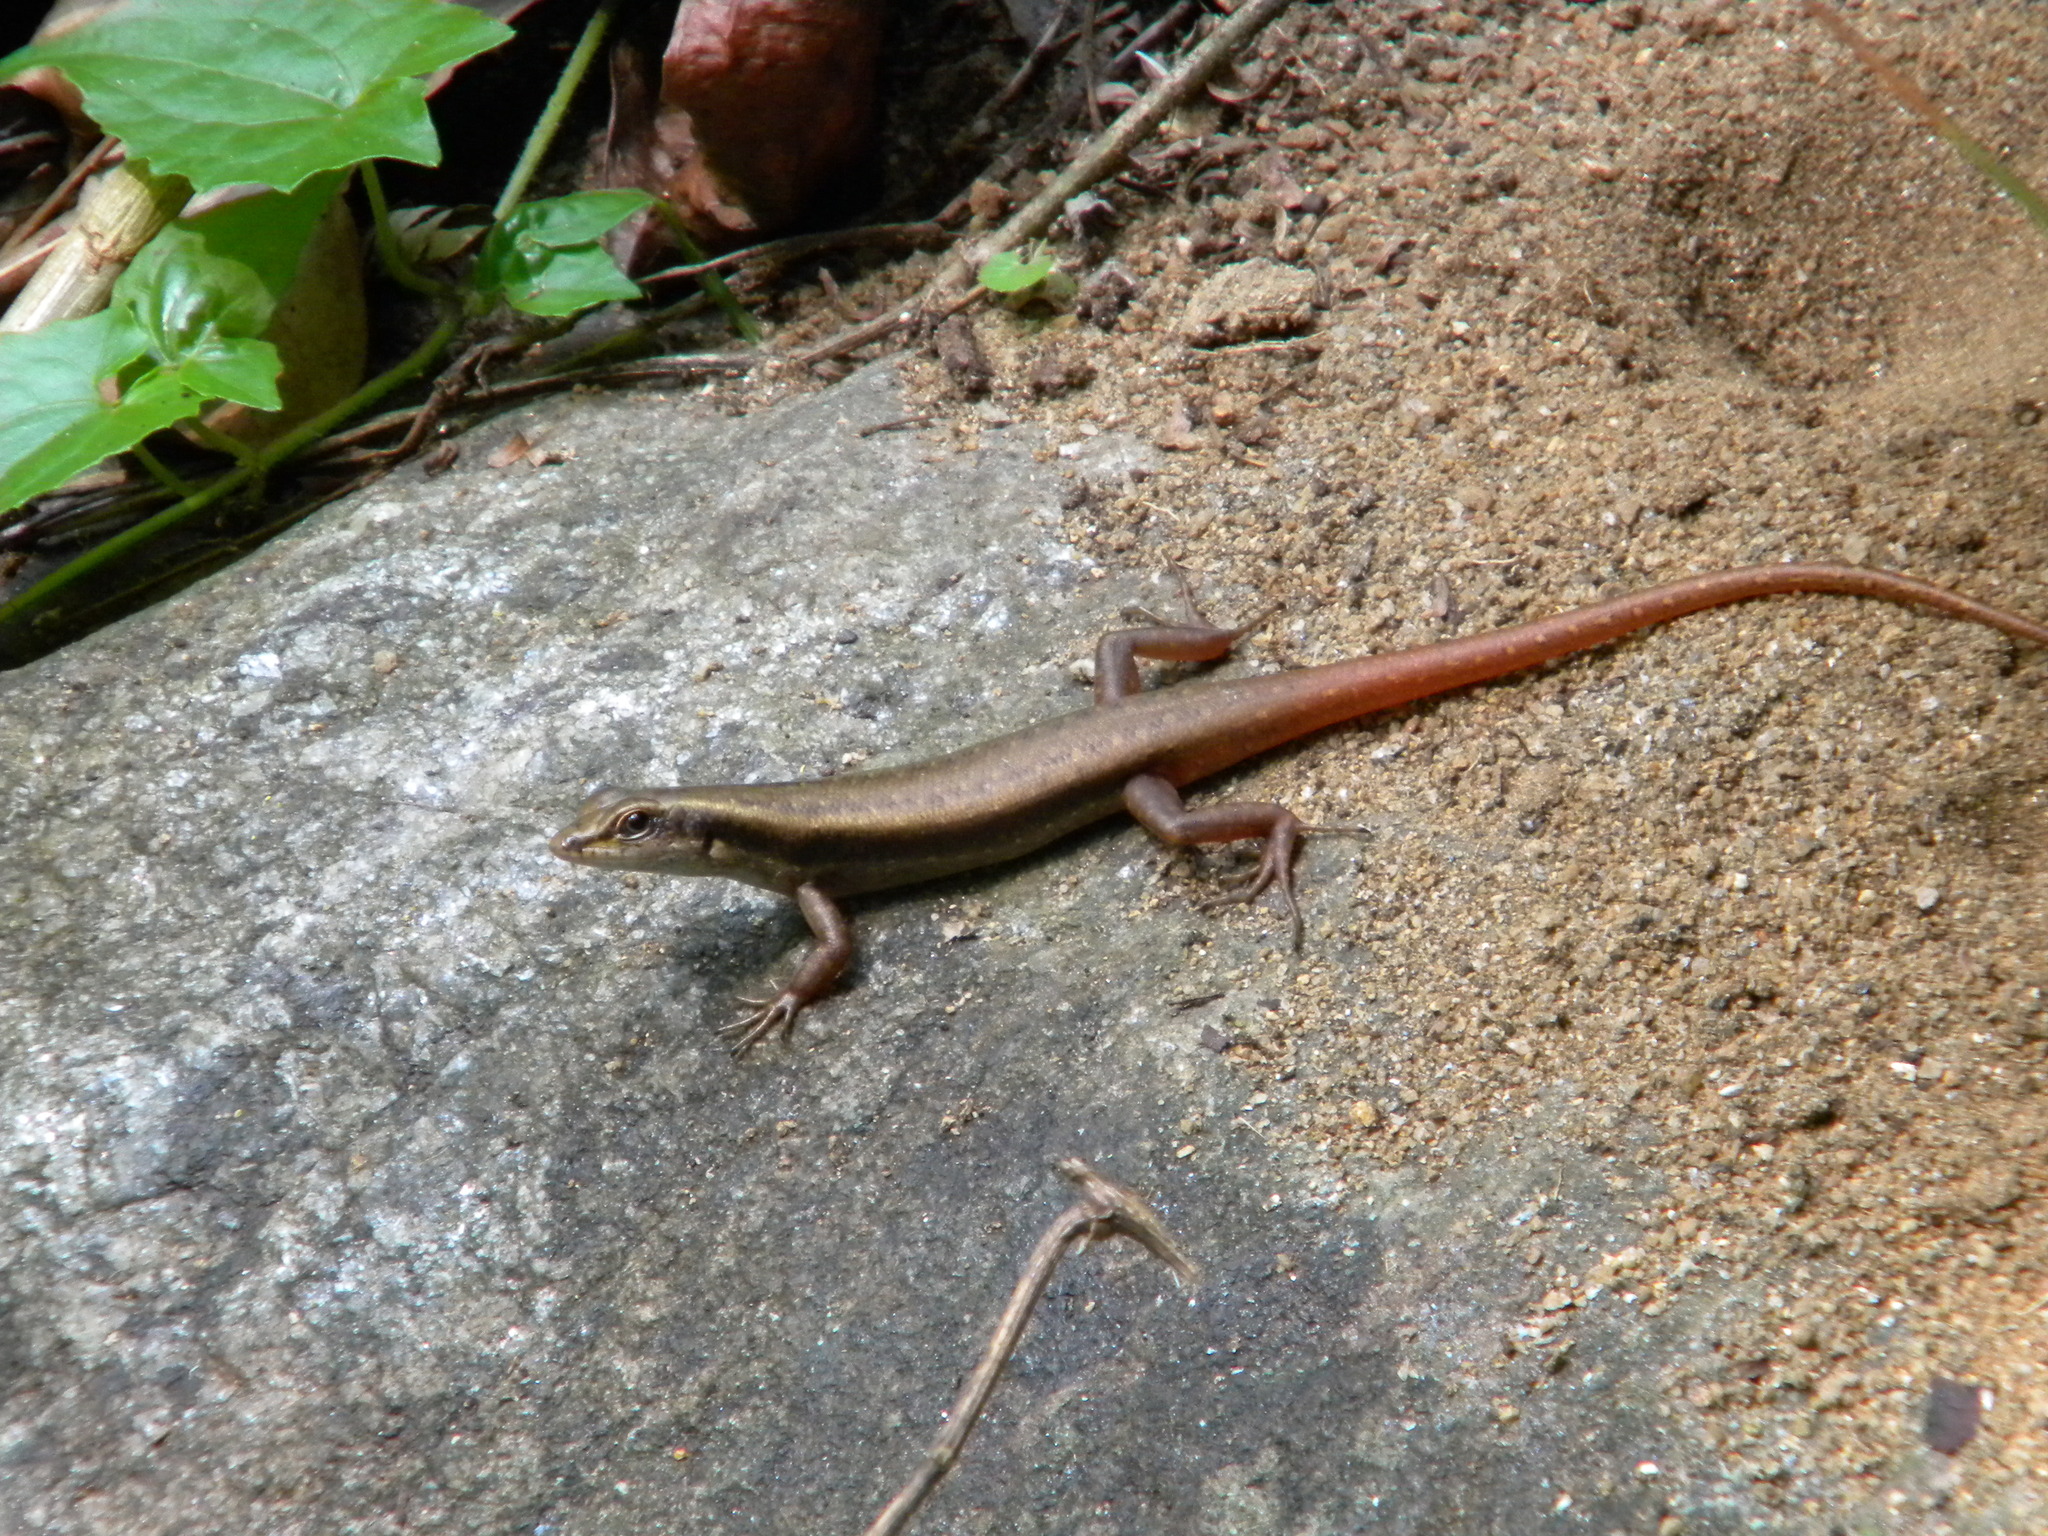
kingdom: Animalia
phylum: Chordata
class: Squamata
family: Scincidae
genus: Sphenomorphus
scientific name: Sphenomorphus dussumieri
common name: Dussumier's forest skink
